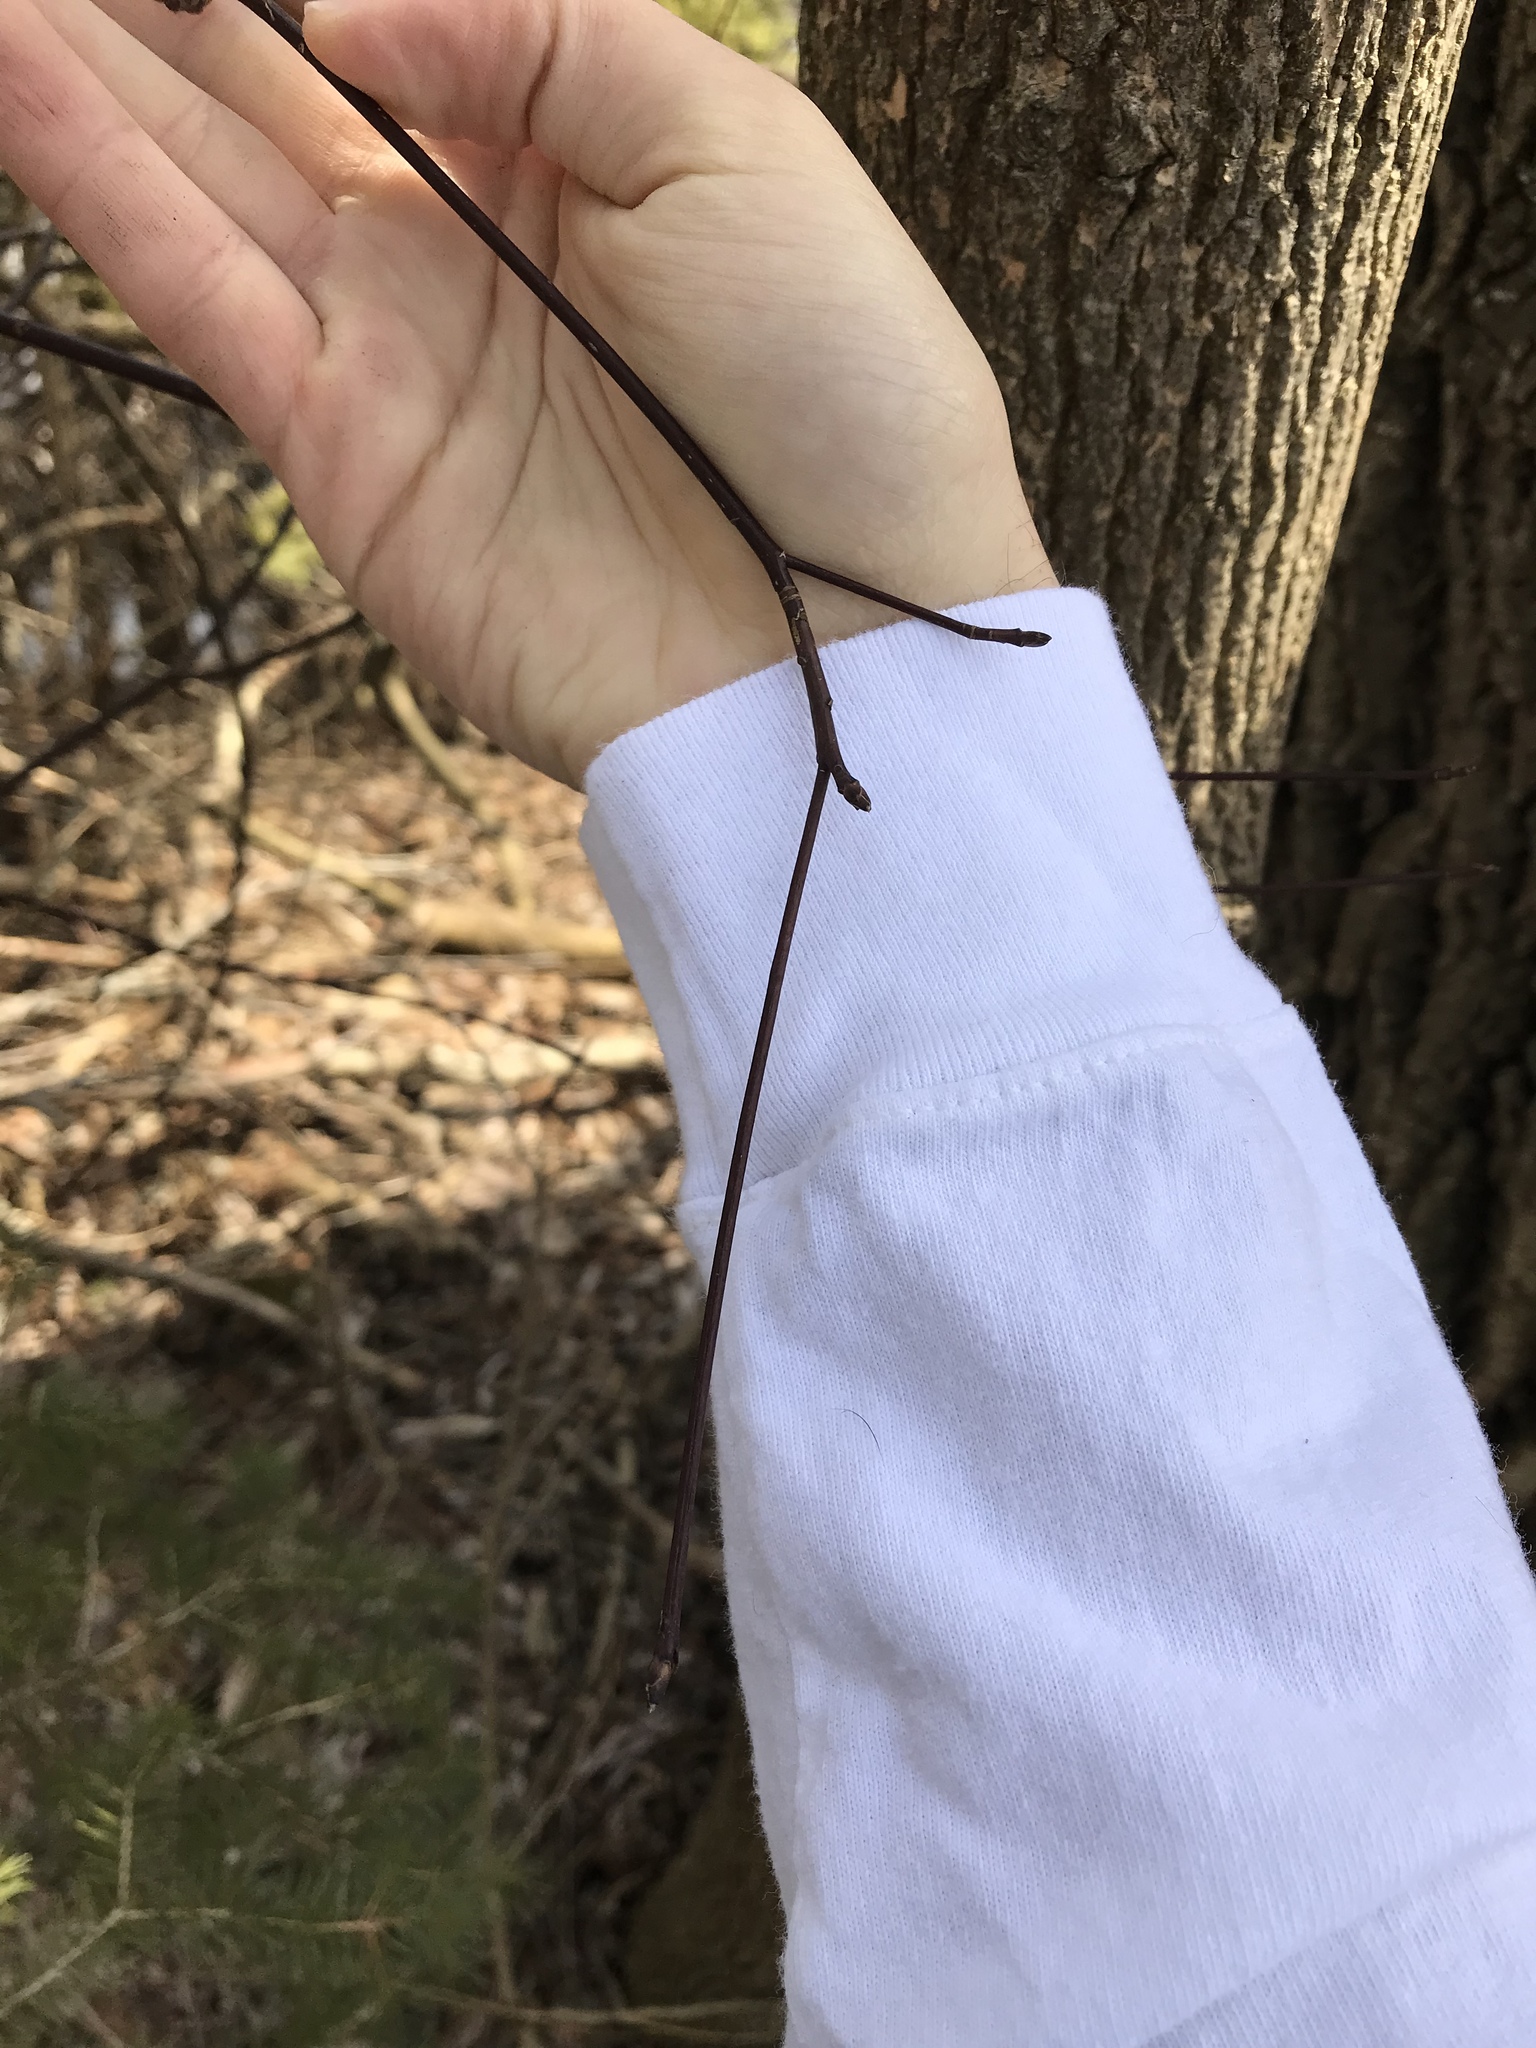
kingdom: Plantae
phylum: Tracheophyta
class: Magnoliopsida
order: Cornales
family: Cornaceae
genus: Cornus
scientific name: Cornus alternifolia
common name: Pagoda dogwood
